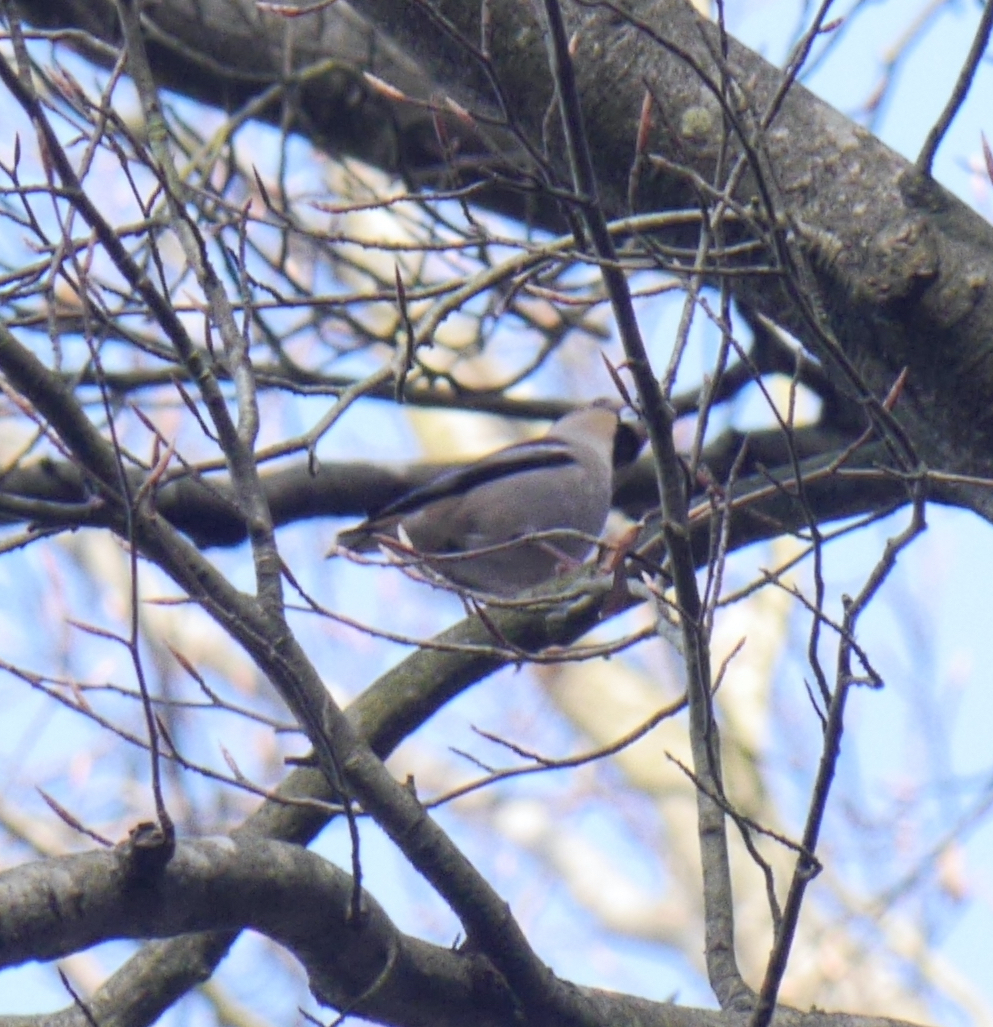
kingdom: Animalia
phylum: Chordata
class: Aves
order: Passeriformes
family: Fringillidae
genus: Coccothraustes
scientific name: Coccothraustes coccothraustes
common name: Hawfinch
